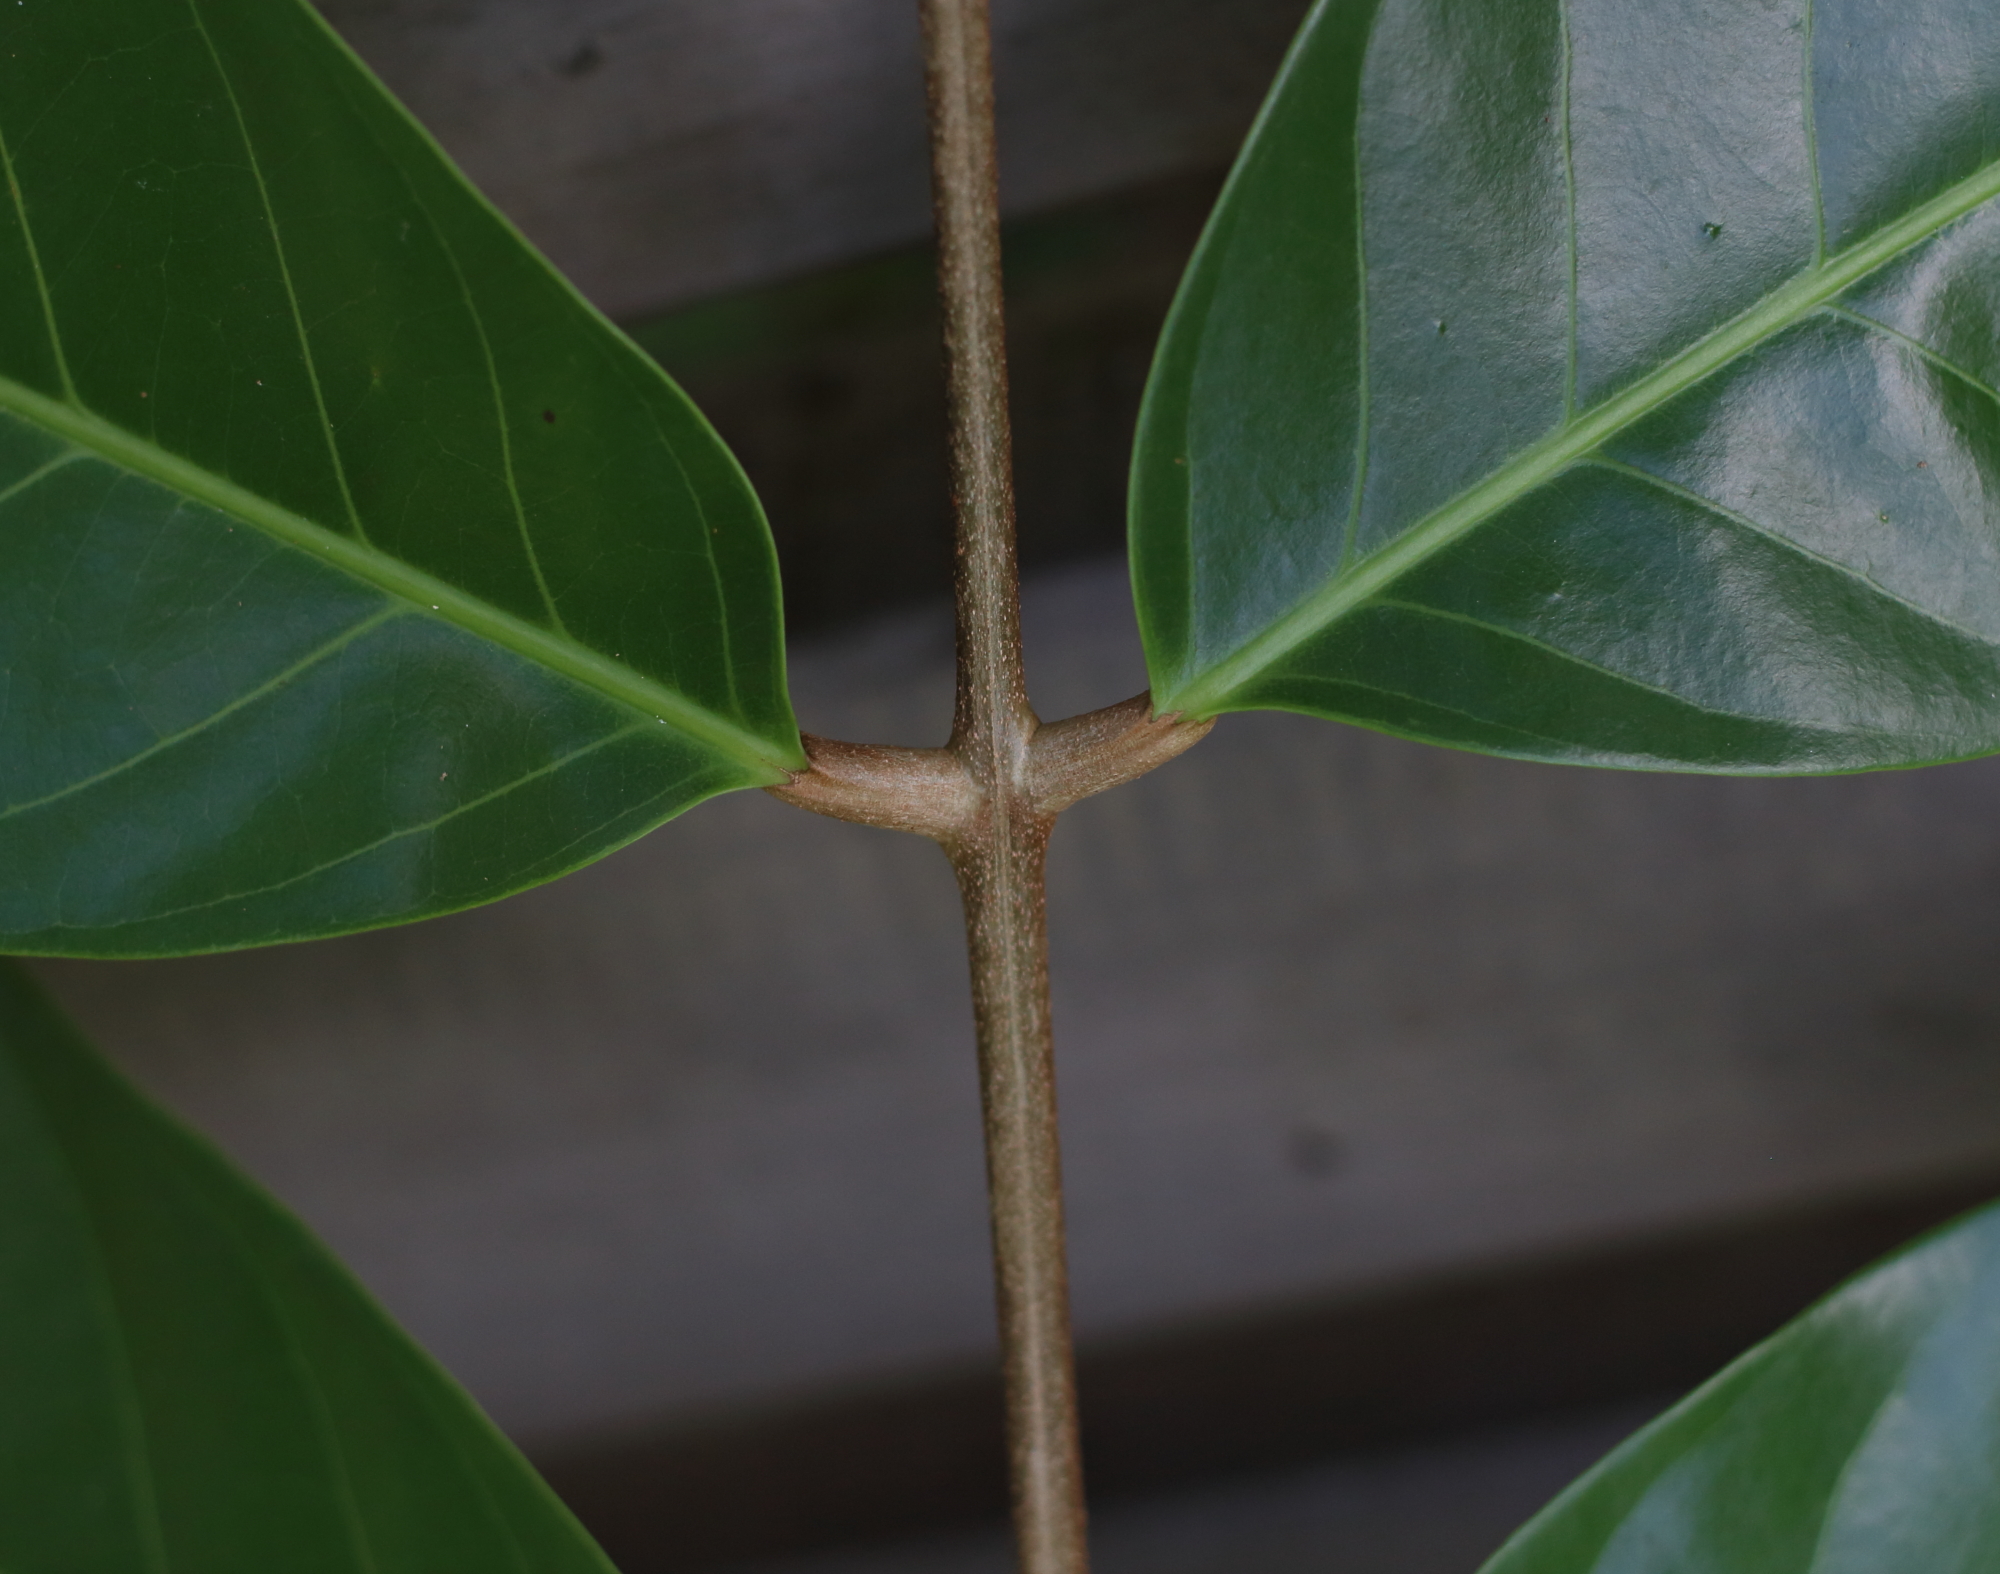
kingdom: Plantae
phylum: Tracheophyta
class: Magnoliopsida
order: Sapindales
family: Meliaceae
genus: Carapa
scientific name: Carapa guianensis
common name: Crabwood
